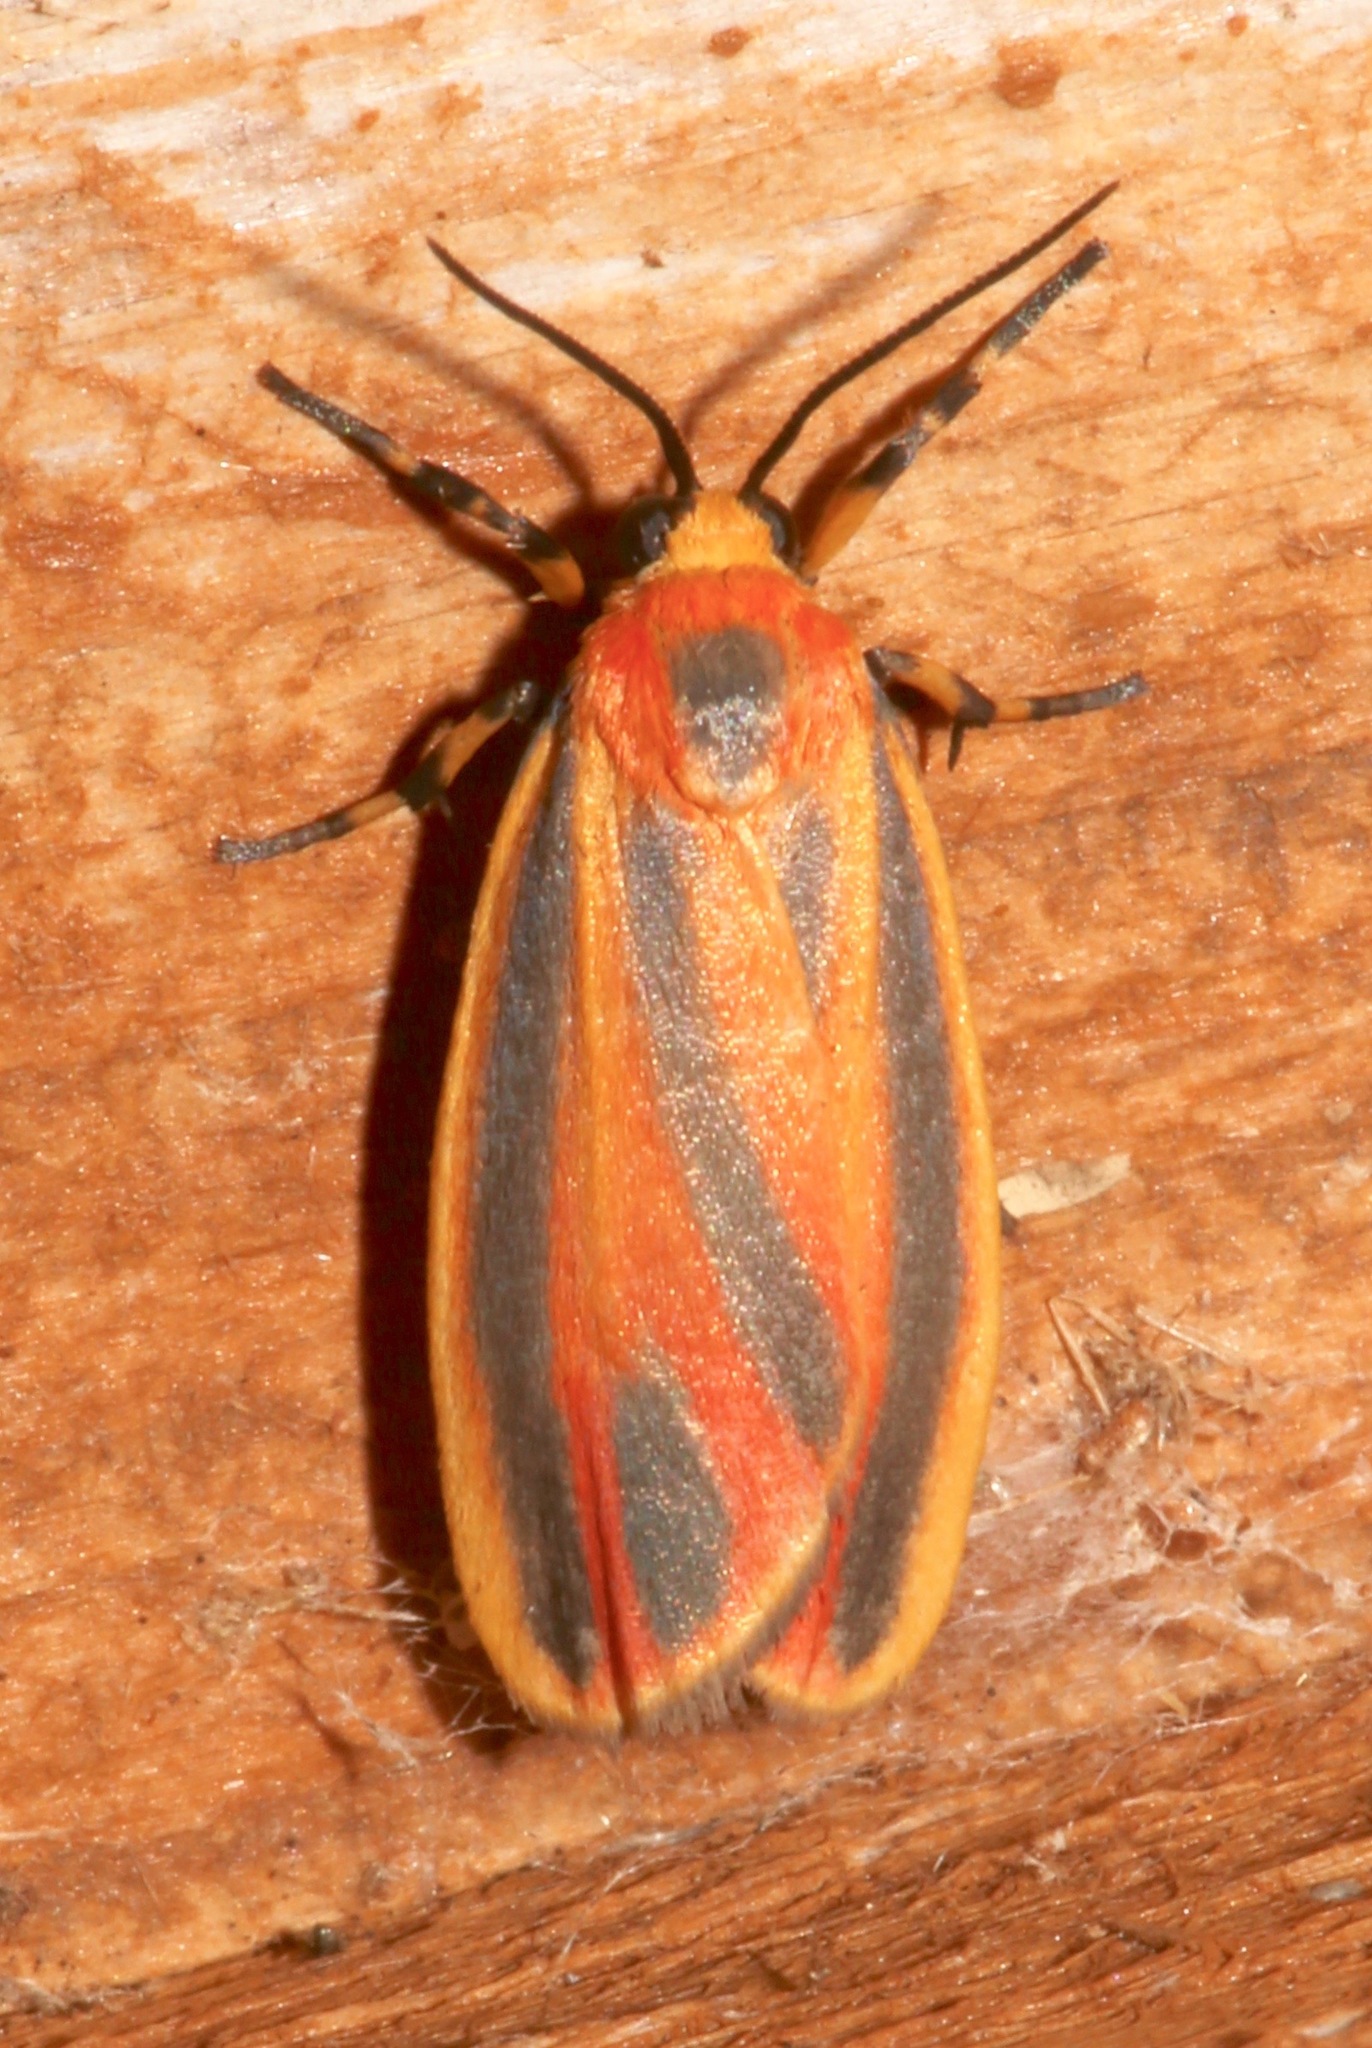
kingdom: Animalia
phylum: Arthropoda
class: Insecta
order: Lepidoptera
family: Erebidae
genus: Hypoprepia
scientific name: Hypoprepia fucosa
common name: Painted lichen moth
